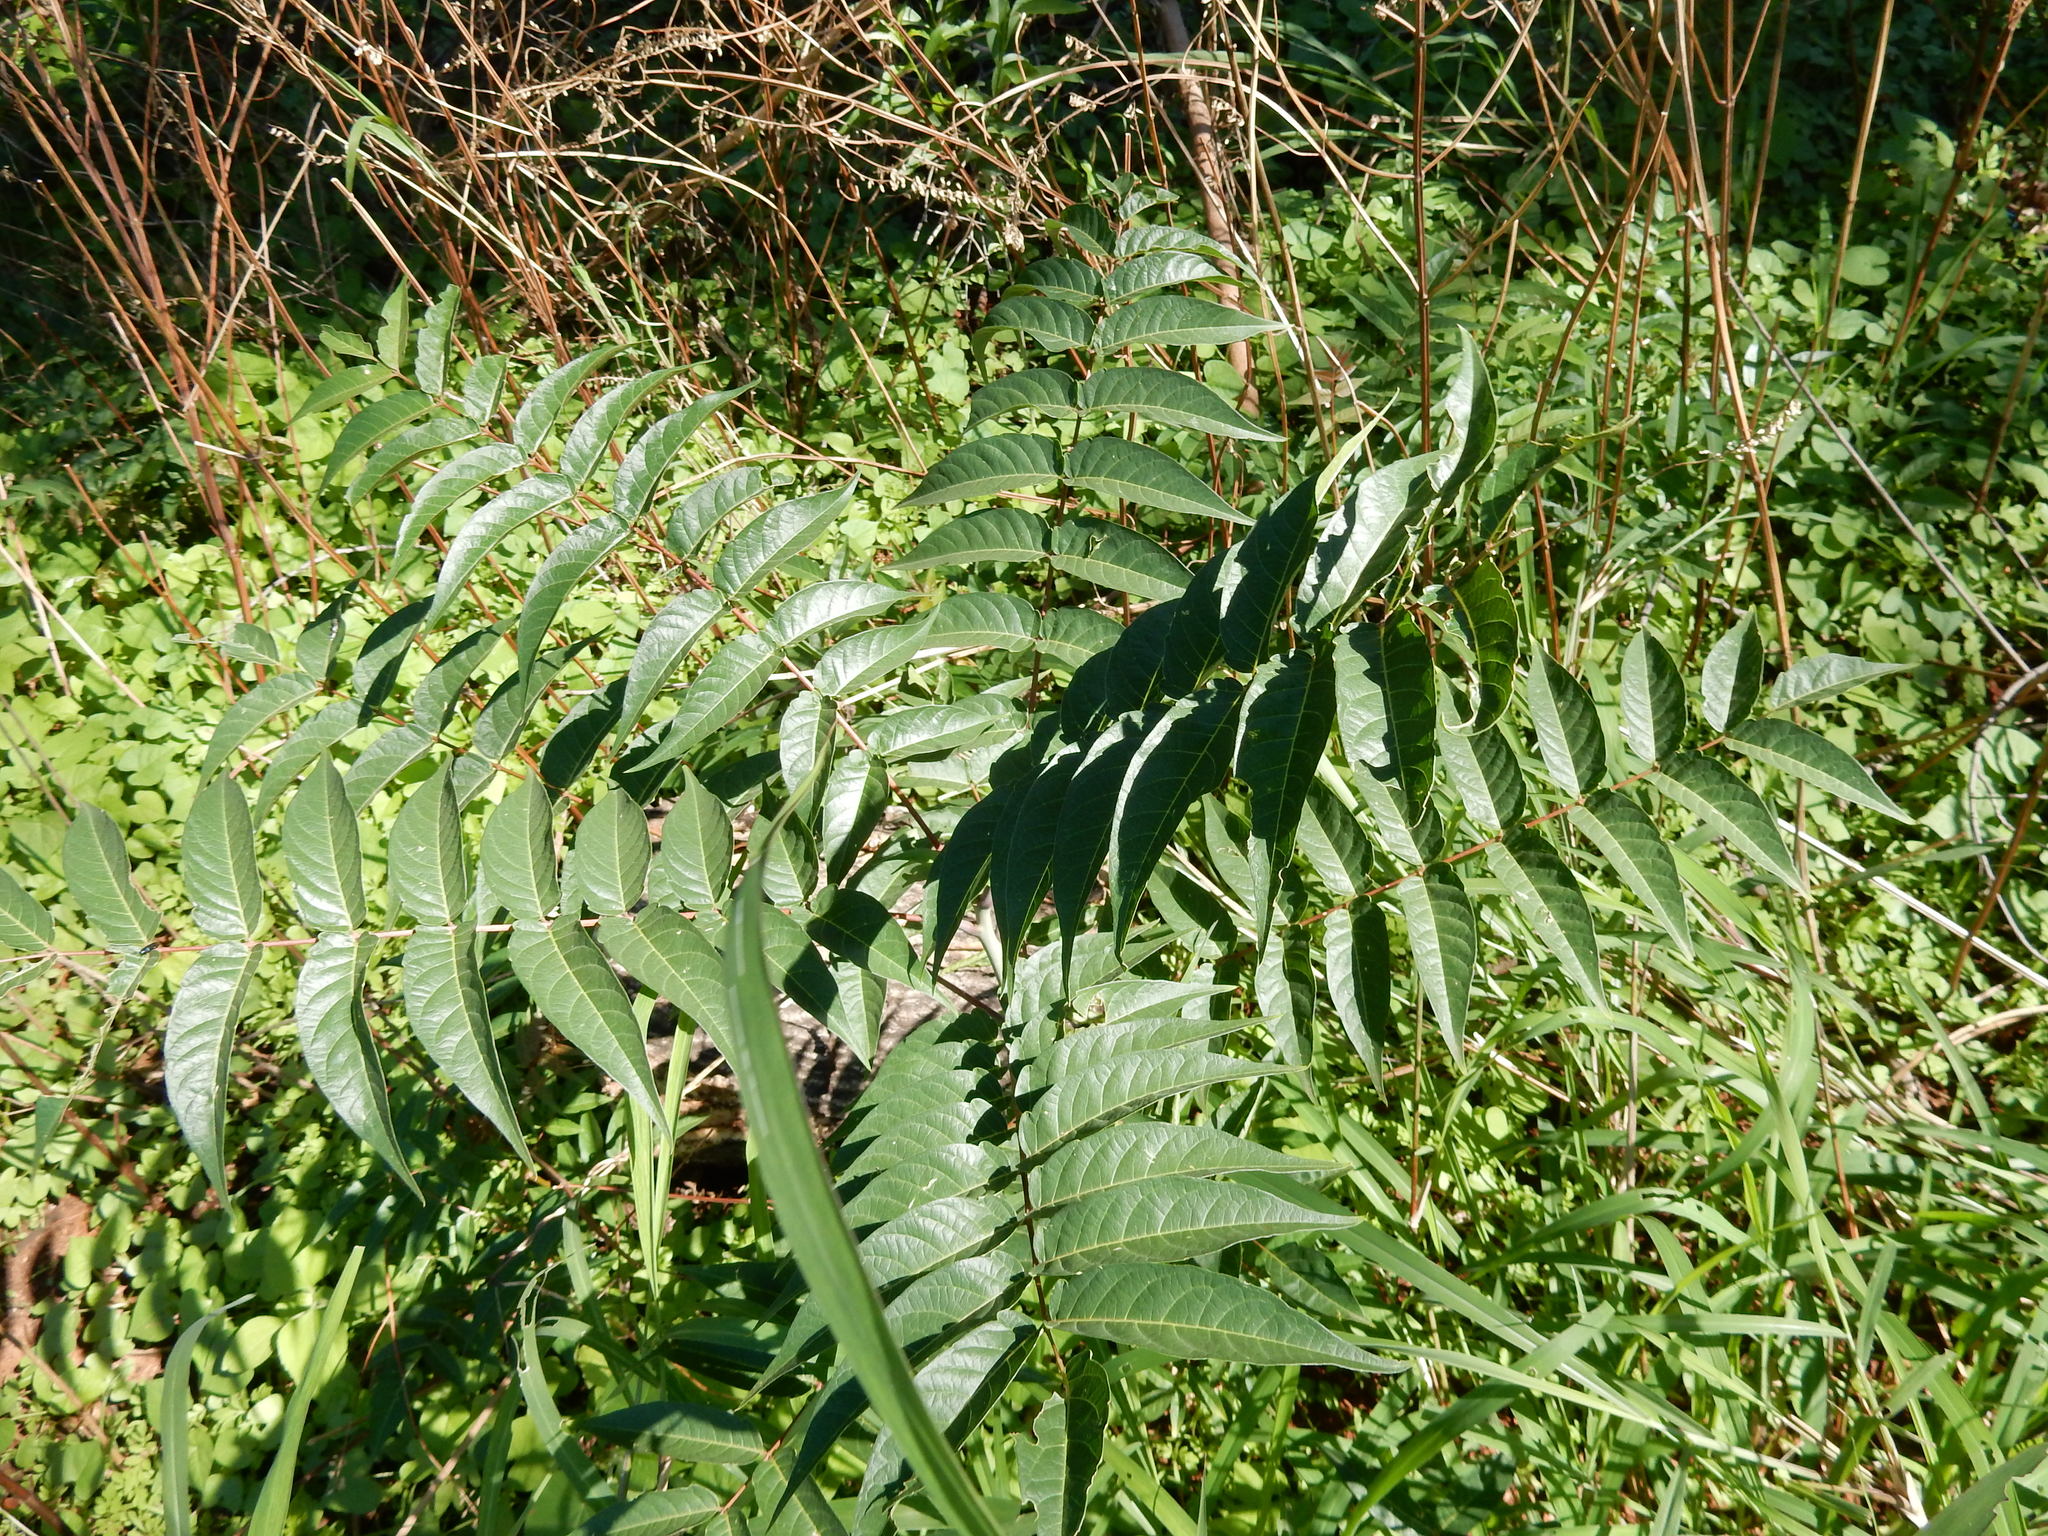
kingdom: Plantae
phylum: Tracheophyta
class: Magnoliopsida
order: Sapindales
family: Simaroubaceae
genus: Ailanthus
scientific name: Ailanthus altissima
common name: Tree-of-heaven
